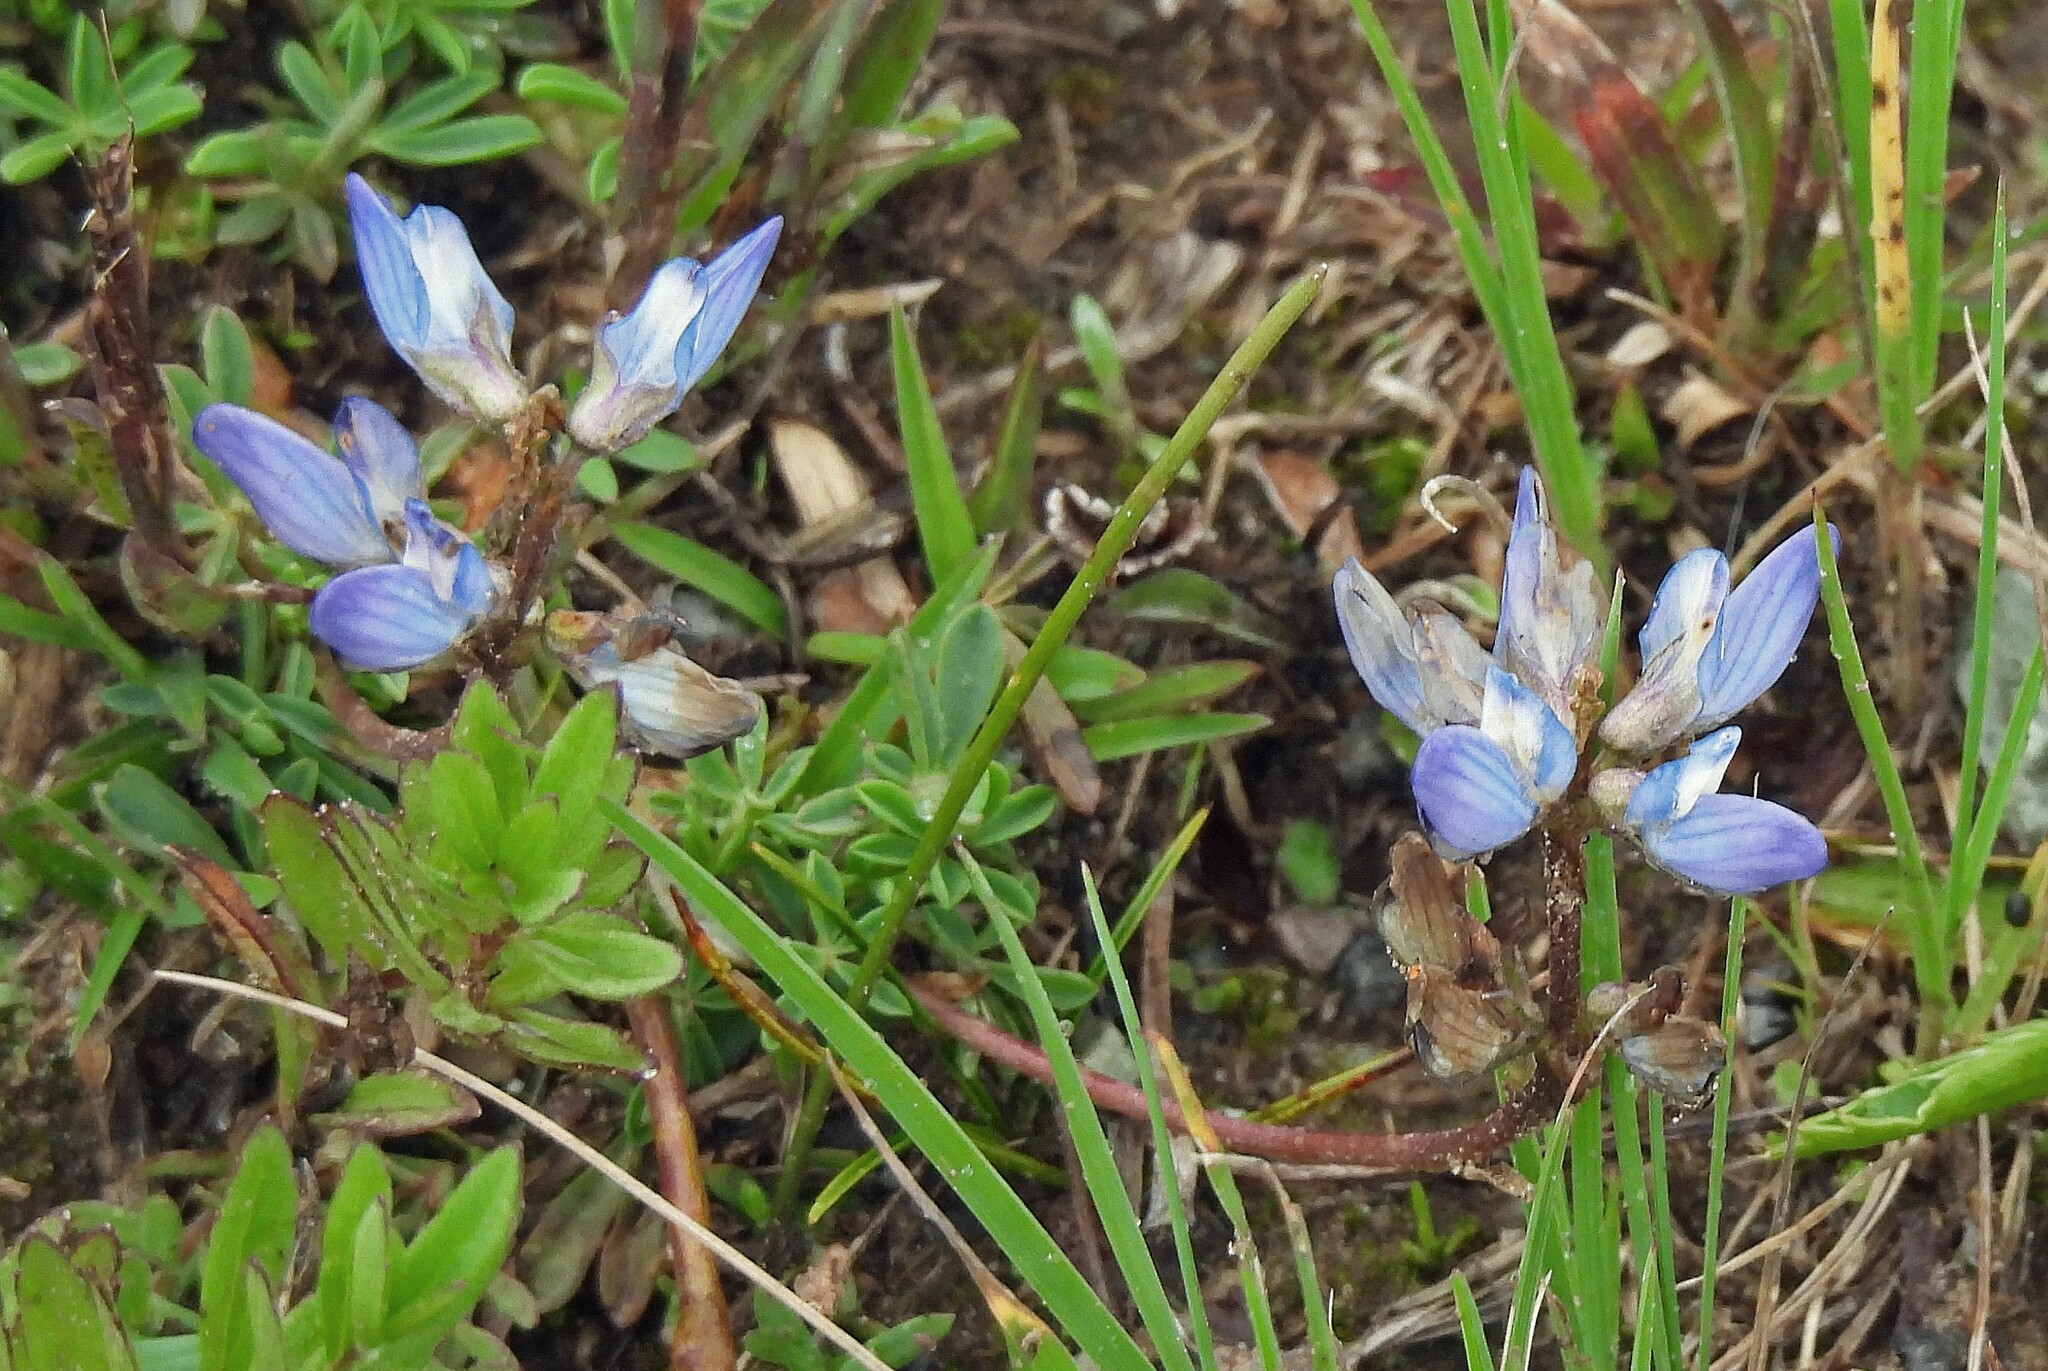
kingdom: Plantae
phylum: Tracheophyta
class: Magnoliopsida
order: Fabales
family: Fabaceae
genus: Lupinus
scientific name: Lupinus buchtienii
